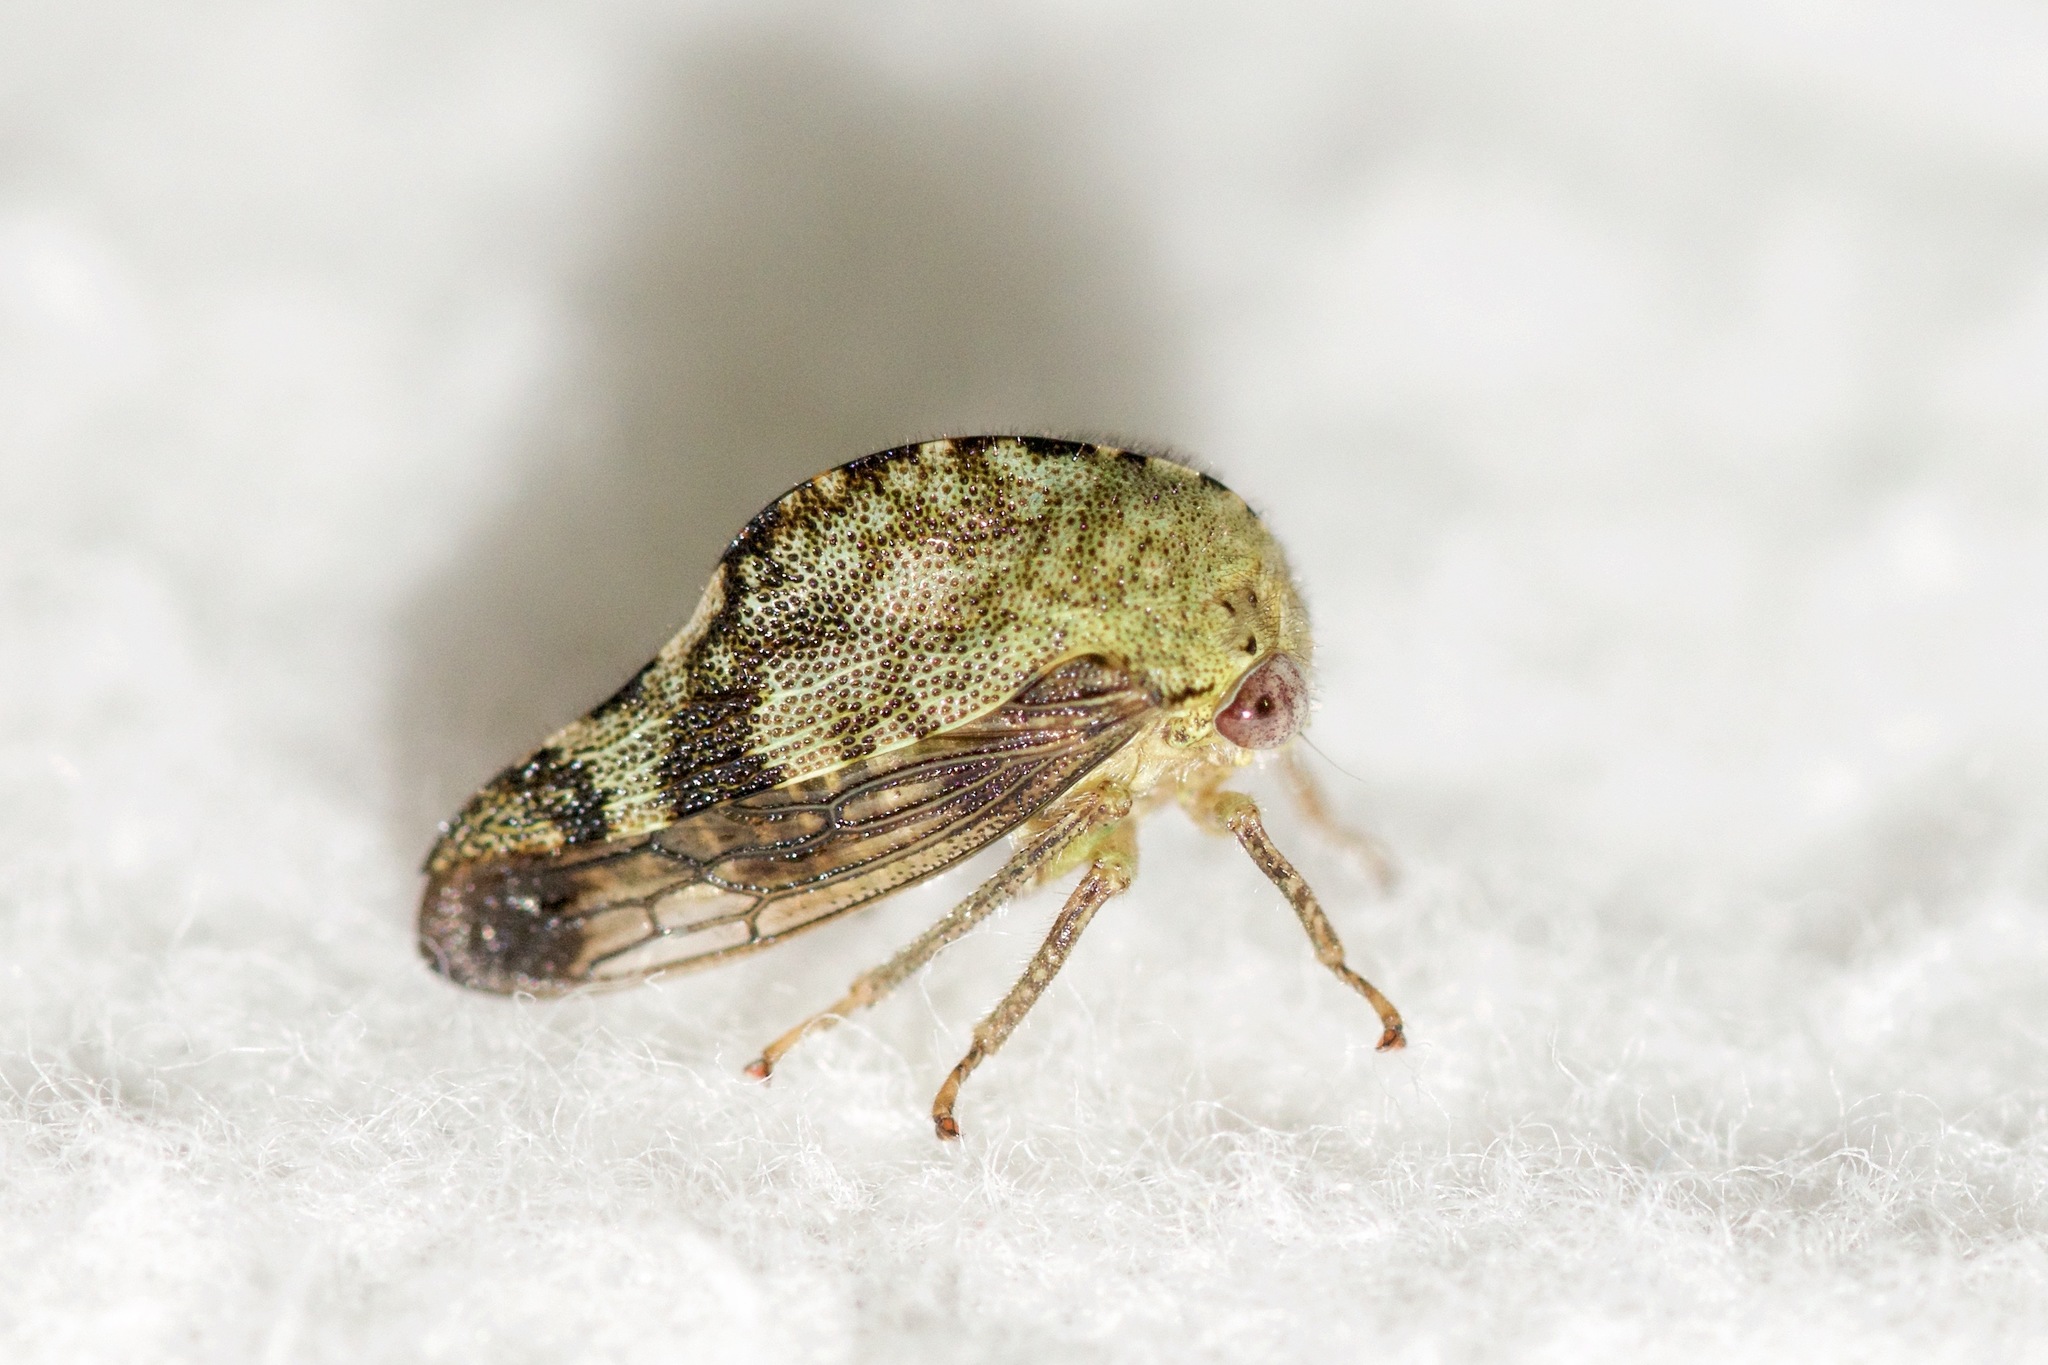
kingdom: Animalia
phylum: Arthropoda
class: Insecta
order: Hemiptera
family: Membracidae
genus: Telamona
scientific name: Telamona reclivata
